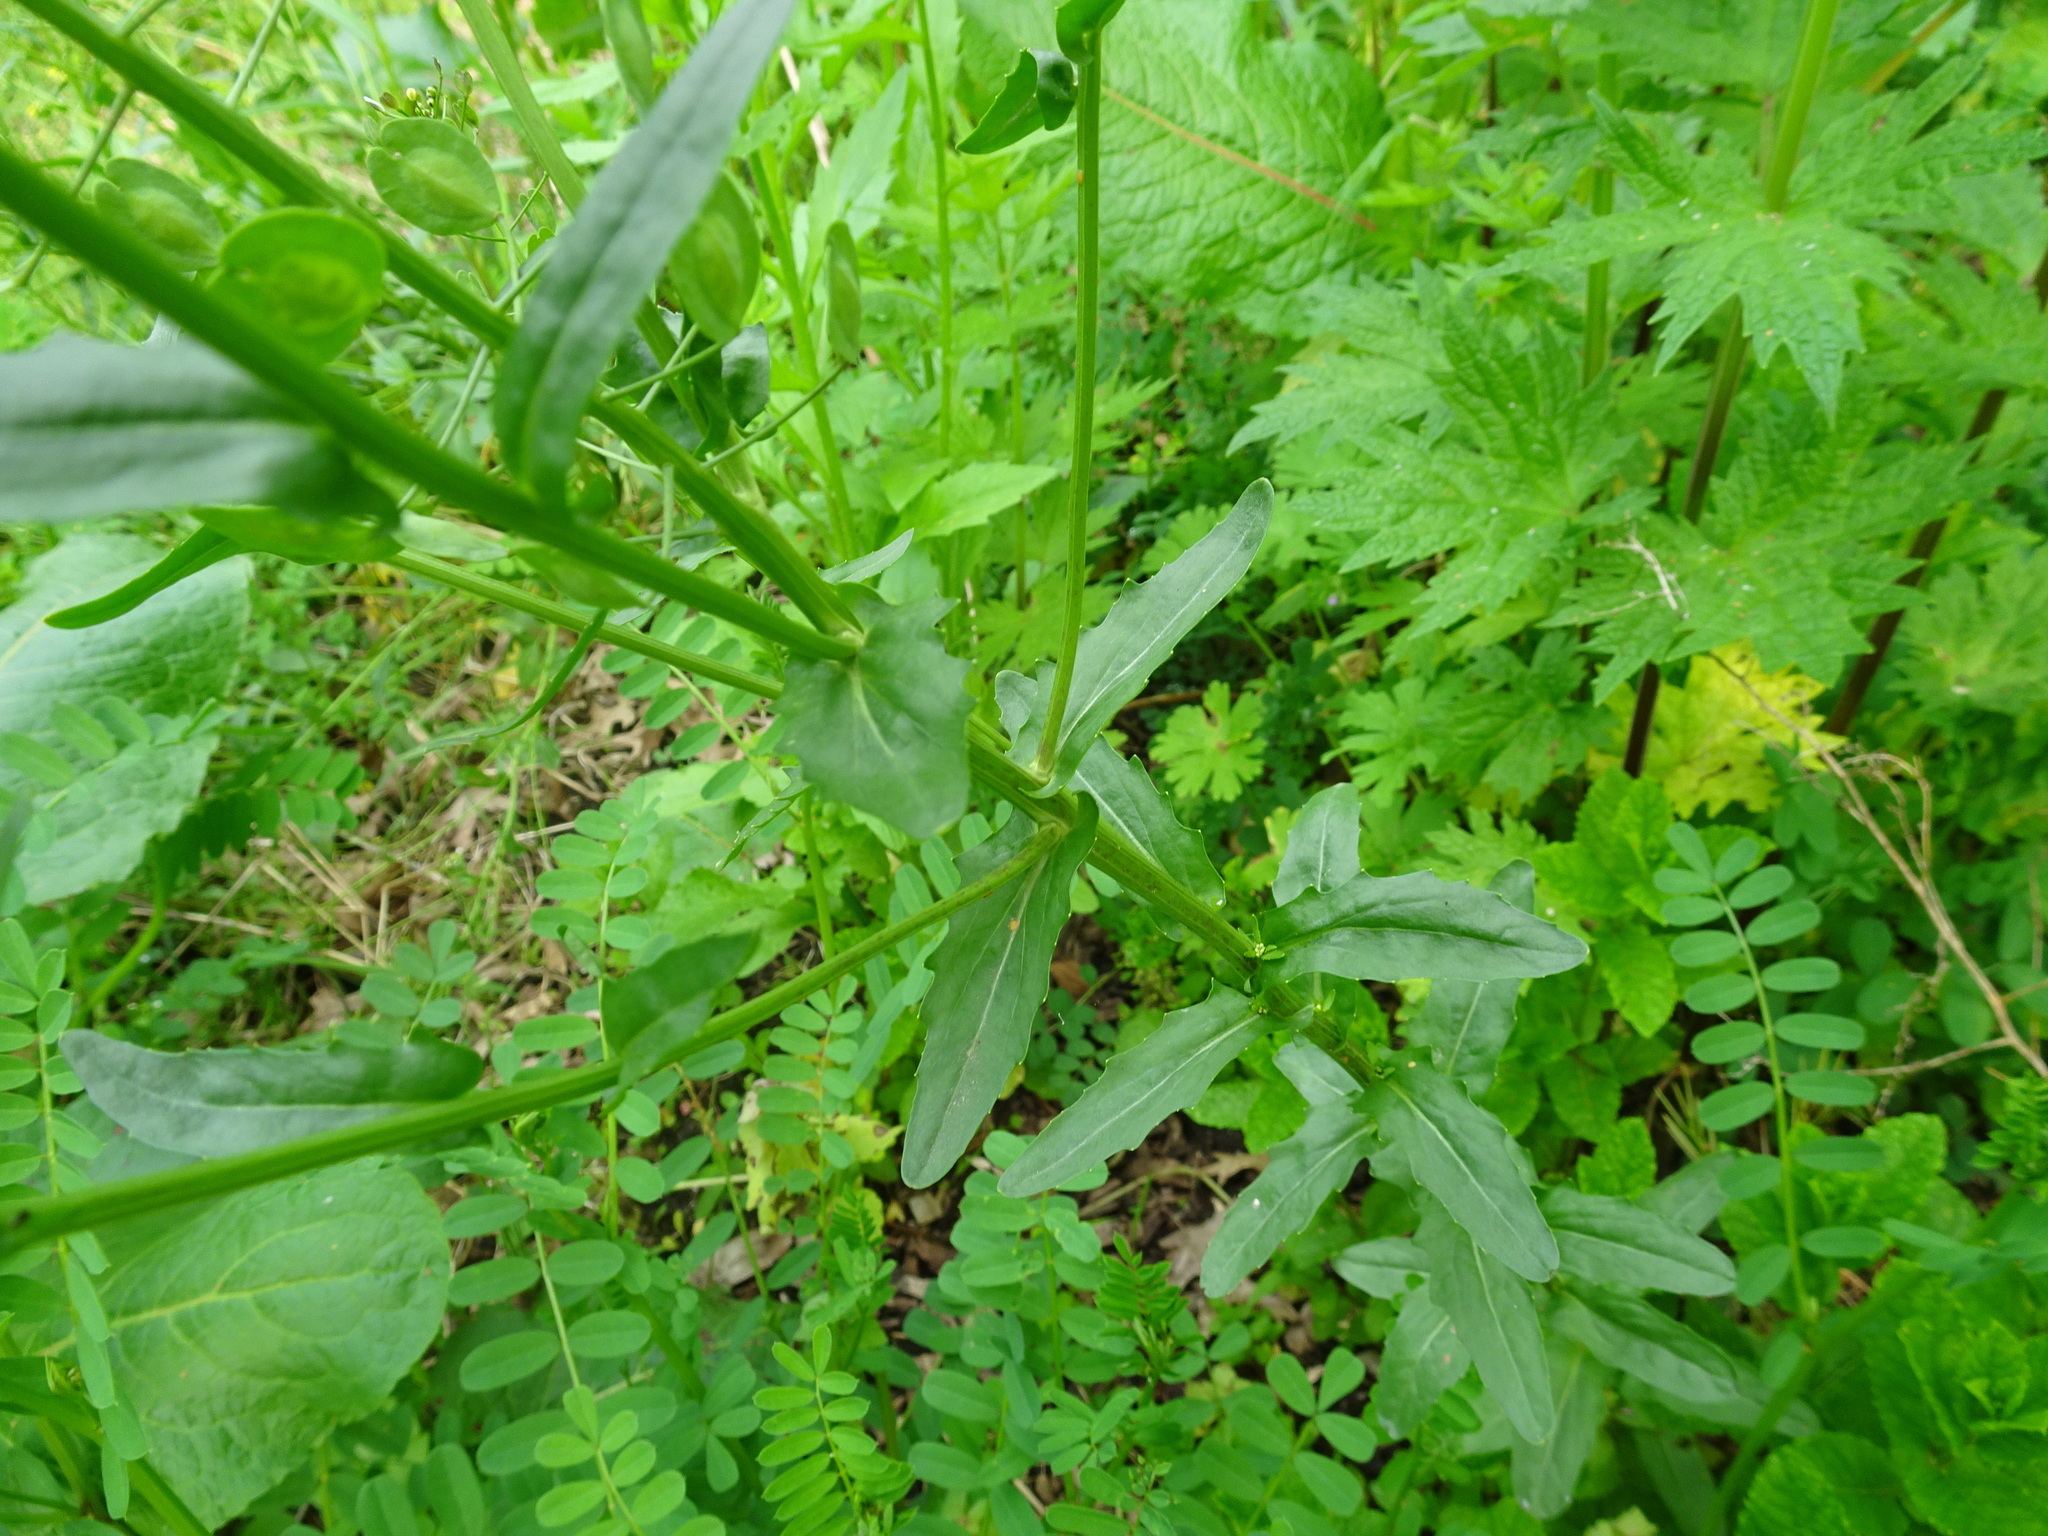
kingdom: Plantae
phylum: Tracheophyta
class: Magnoliopsida
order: Brassicales
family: Brassicaceae
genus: Thlaspi
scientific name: Thlaspi arvense
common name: Field pennycress
